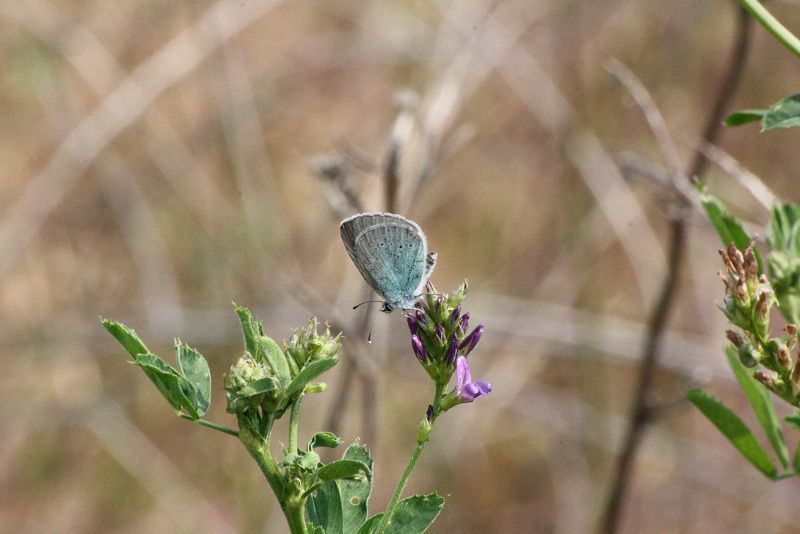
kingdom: Animalia
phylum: Arthropoda
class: Insecta
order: Lepidoptera
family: Lycaenidae
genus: Glaucopsyche
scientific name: Glaucopsyche alexis
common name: Green-underside blue
